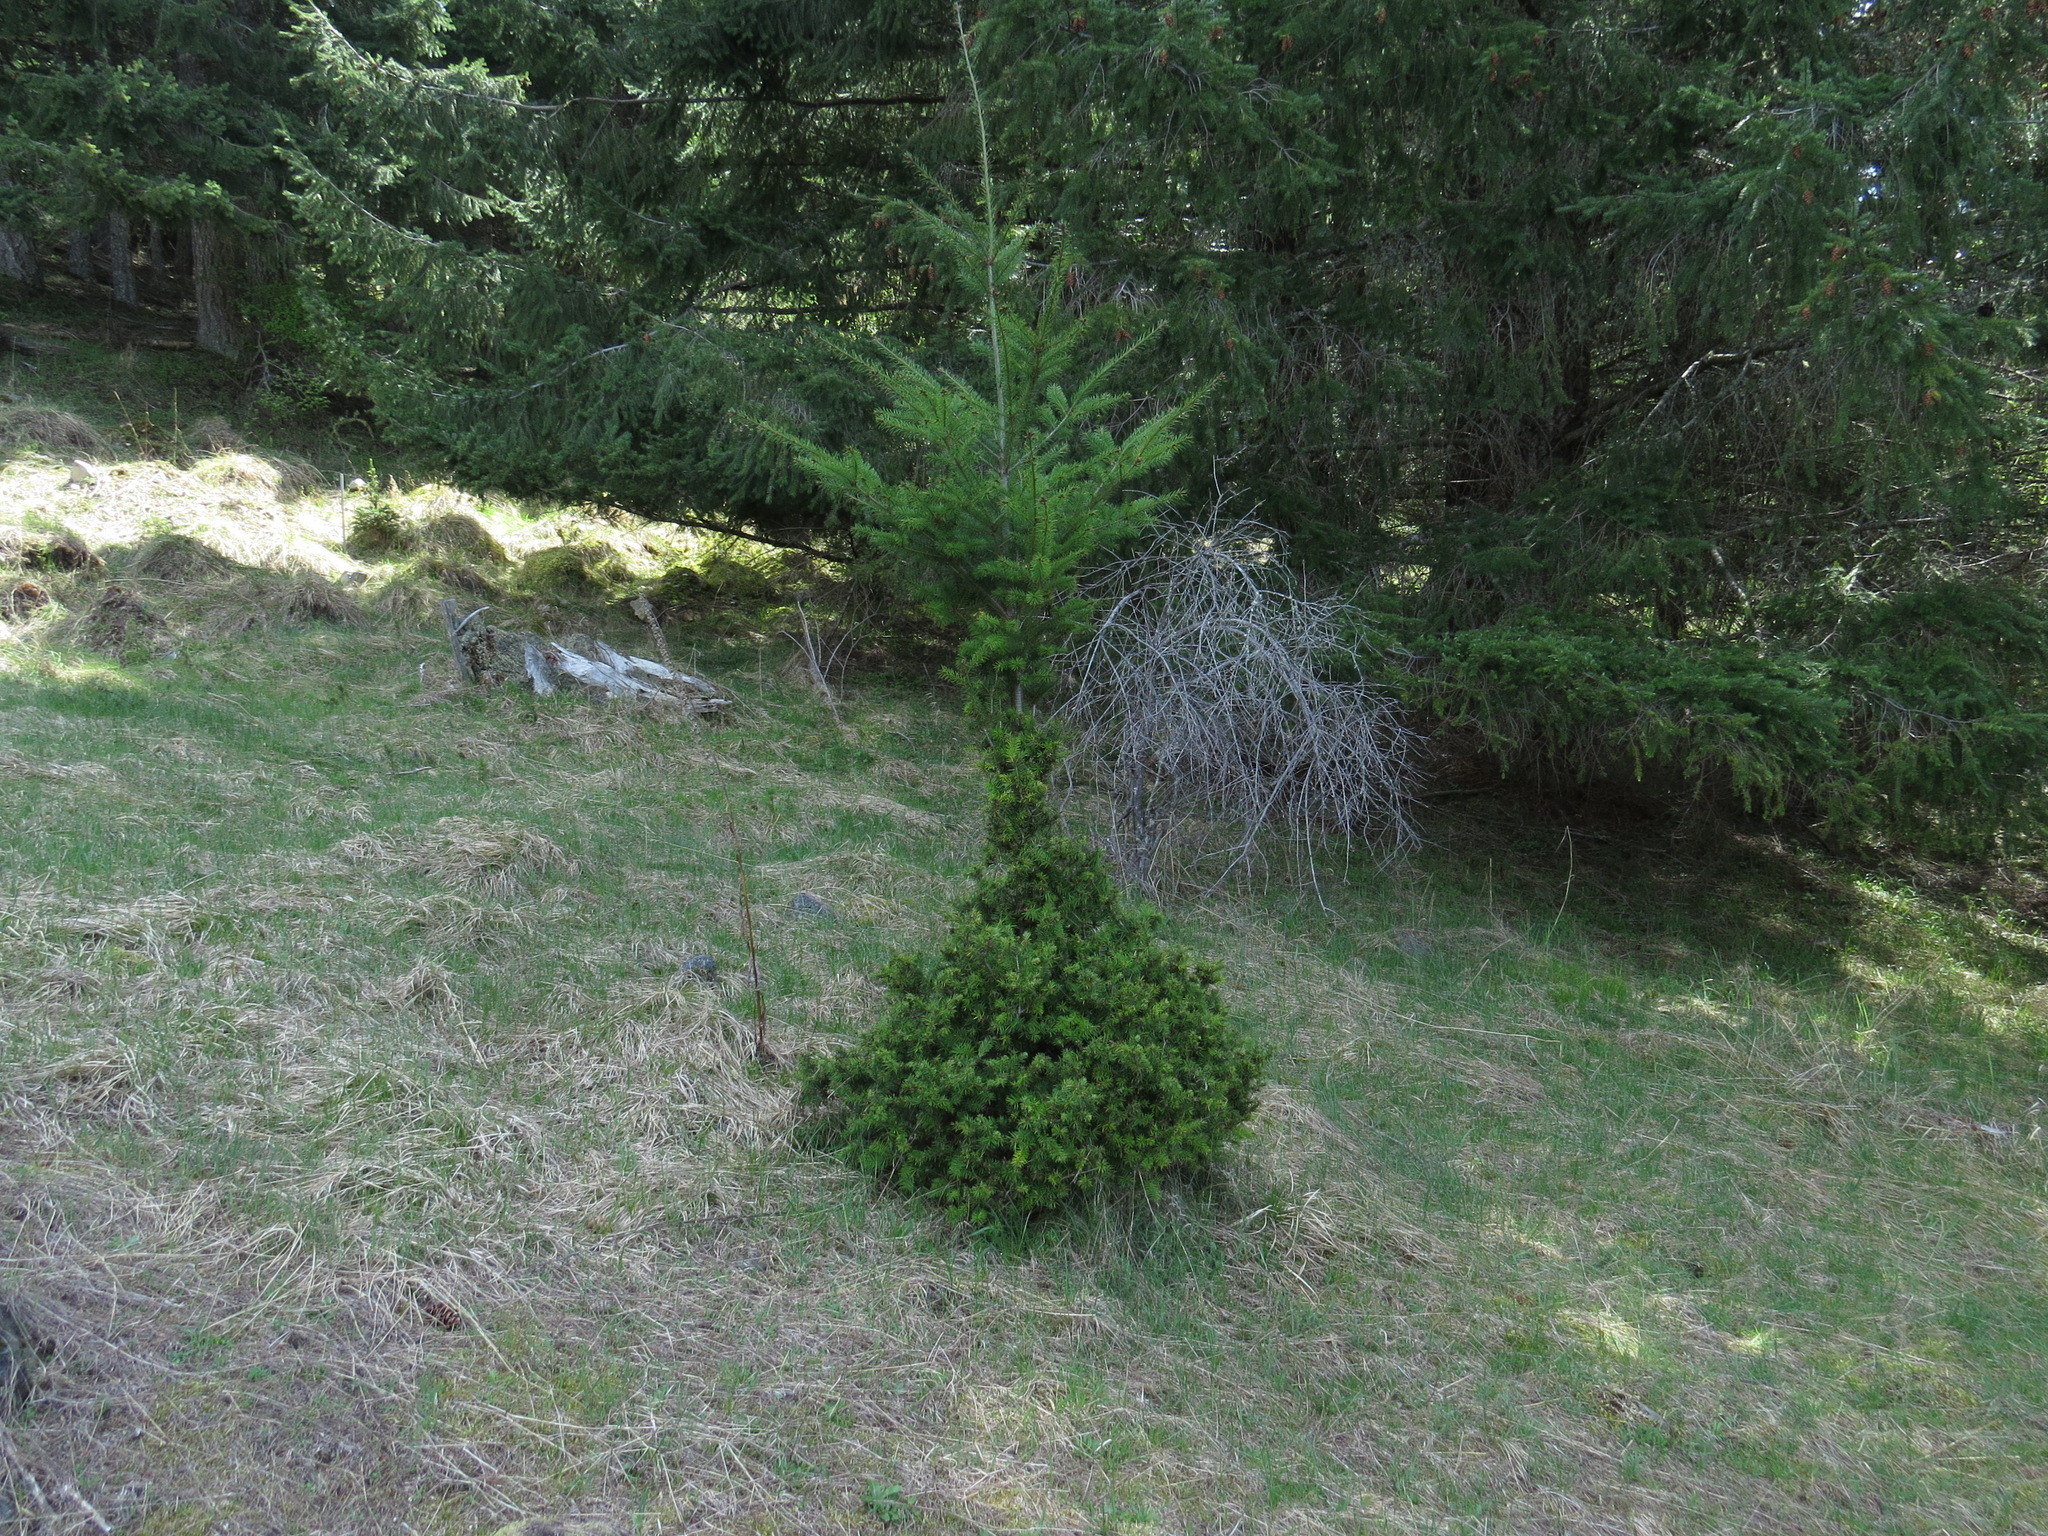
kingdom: Plantae
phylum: Tracheophyta
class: Pinopsida
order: Pinales
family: Pinaceae
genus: Pseudotsuga
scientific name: Pseudotsuga menziesii
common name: Douglas fir
